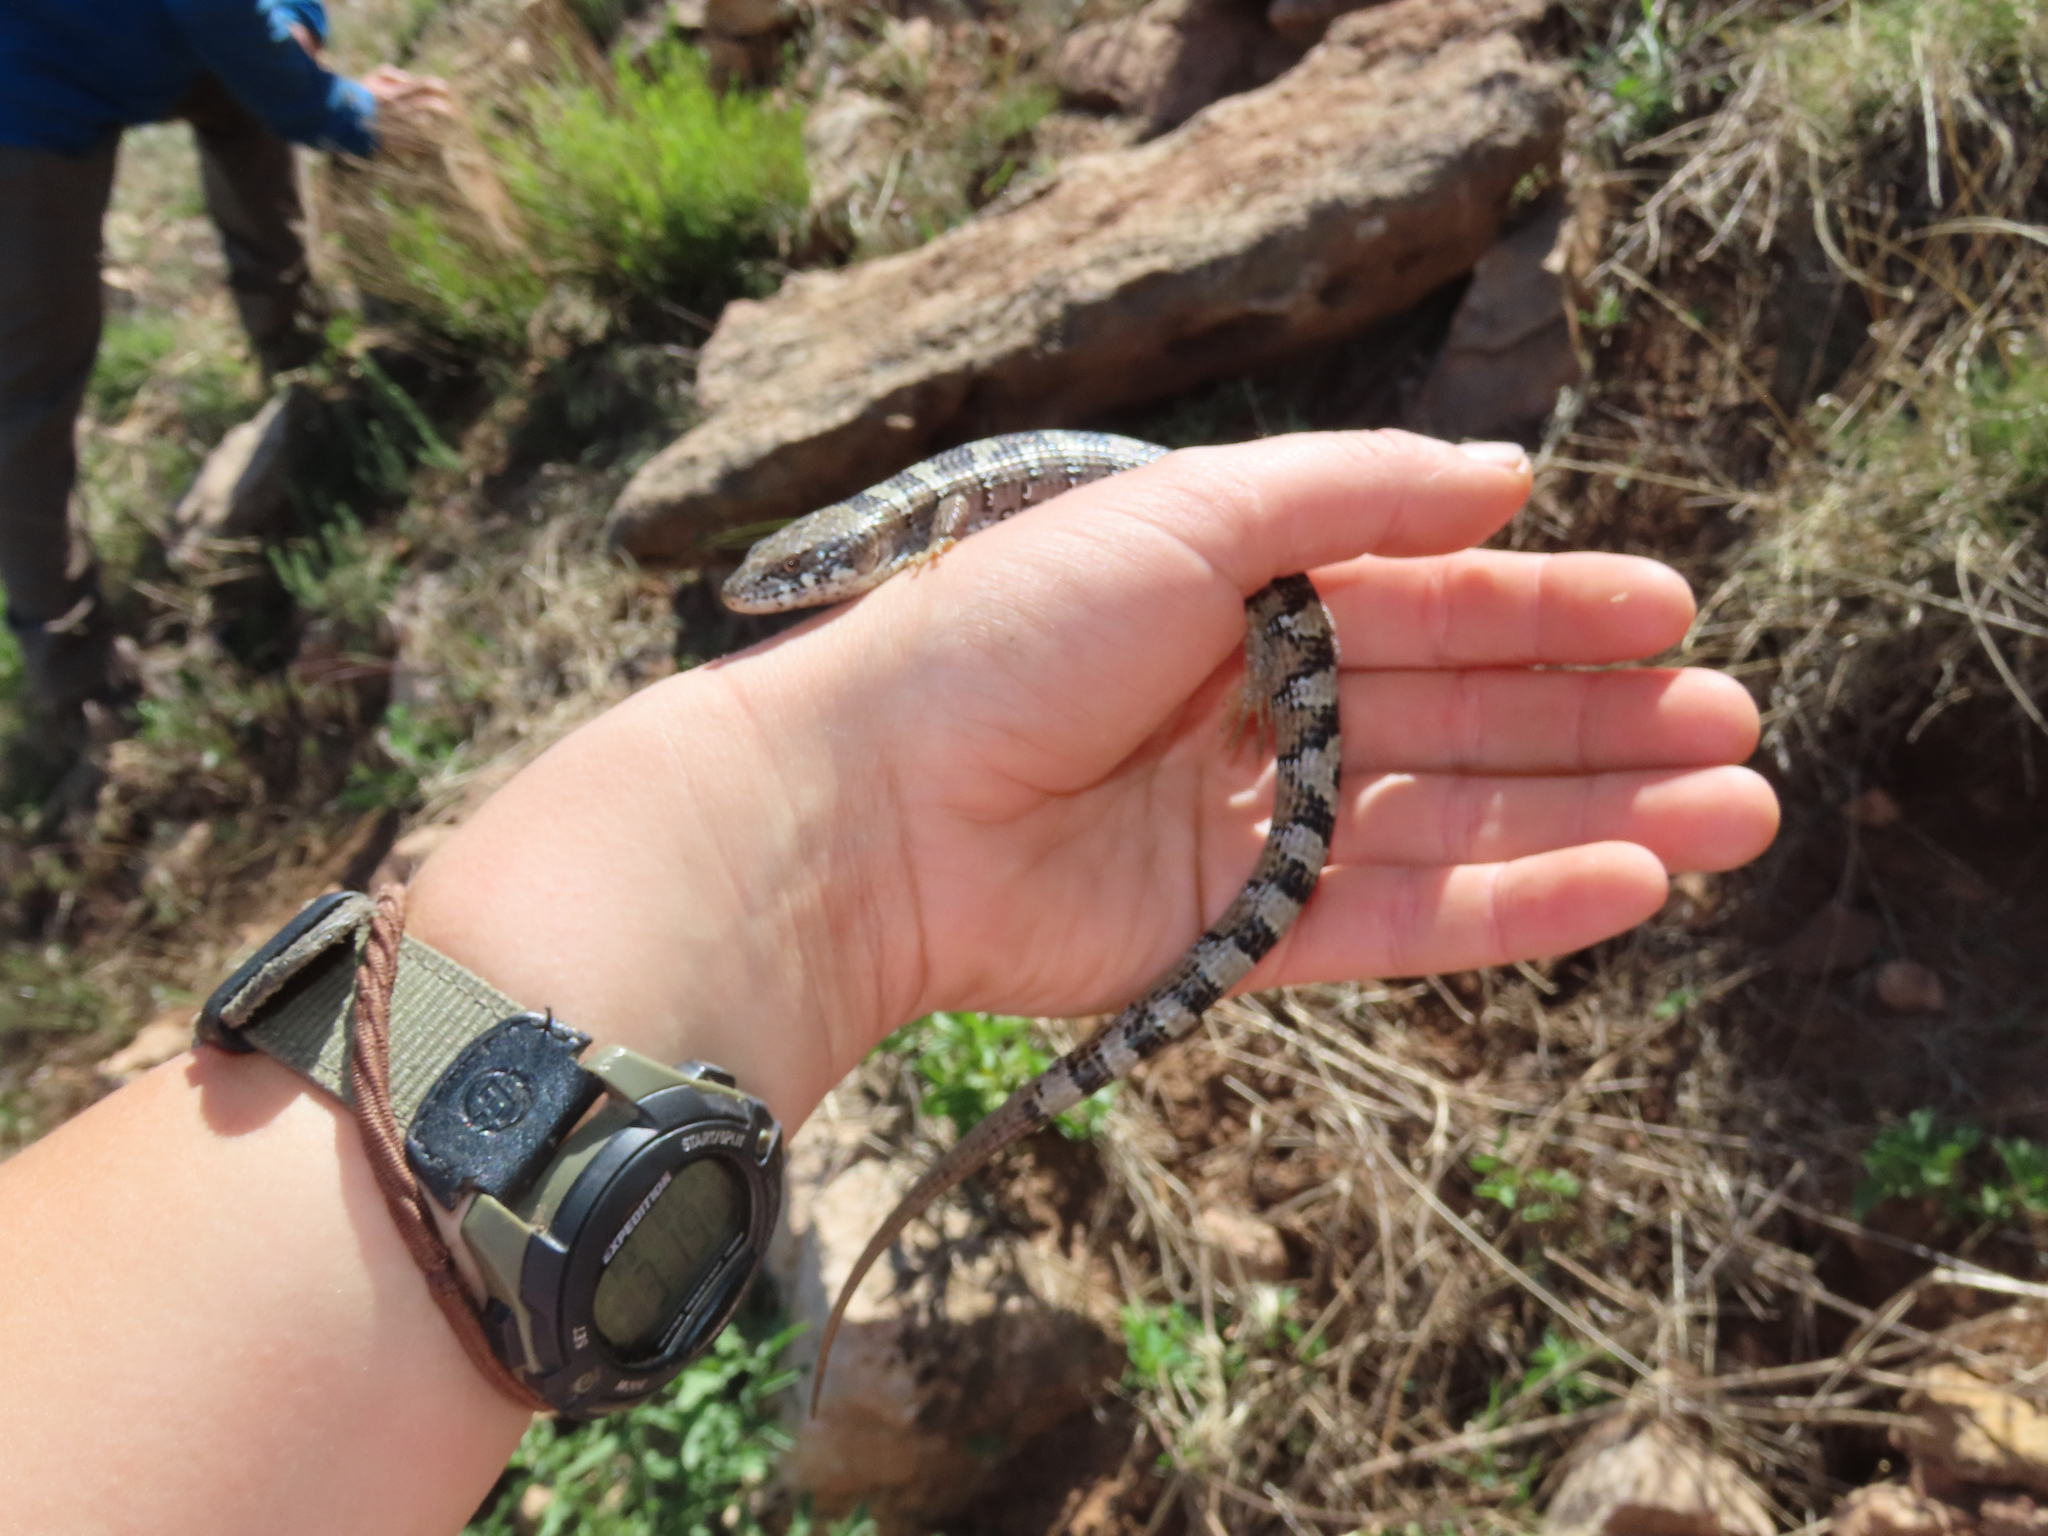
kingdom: Animalia
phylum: Chordata
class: Squamata
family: Anguidae
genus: Elgaria
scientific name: Elgaria kingii
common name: Madrean alligator lizard
